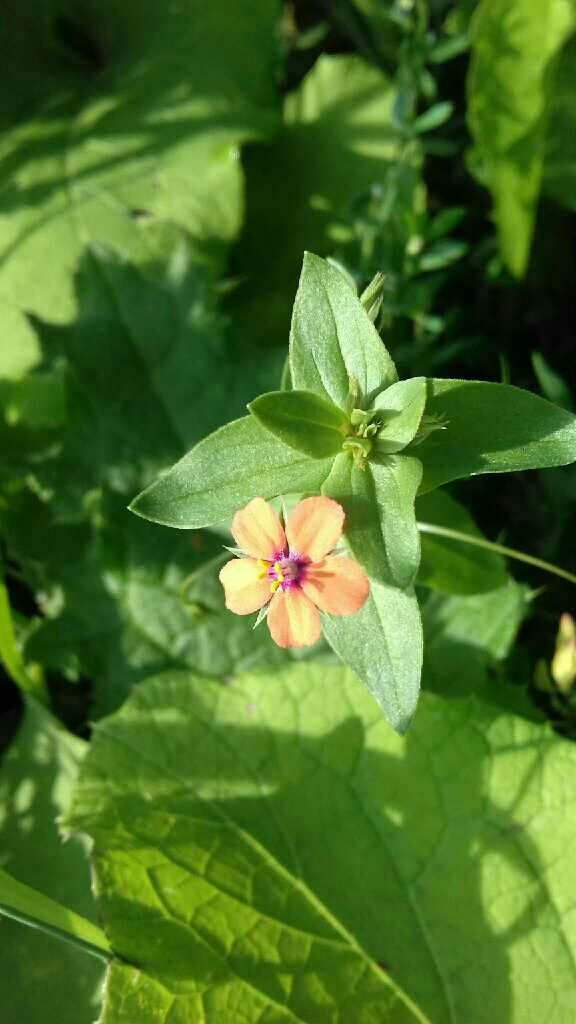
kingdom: Plantae
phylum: Tracheophyta
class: Magnoliopsida
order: Ericales
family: Primulaceae
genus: Lysimachia
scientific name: Lysimachia arvensis
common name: Scarlet pimpernel
